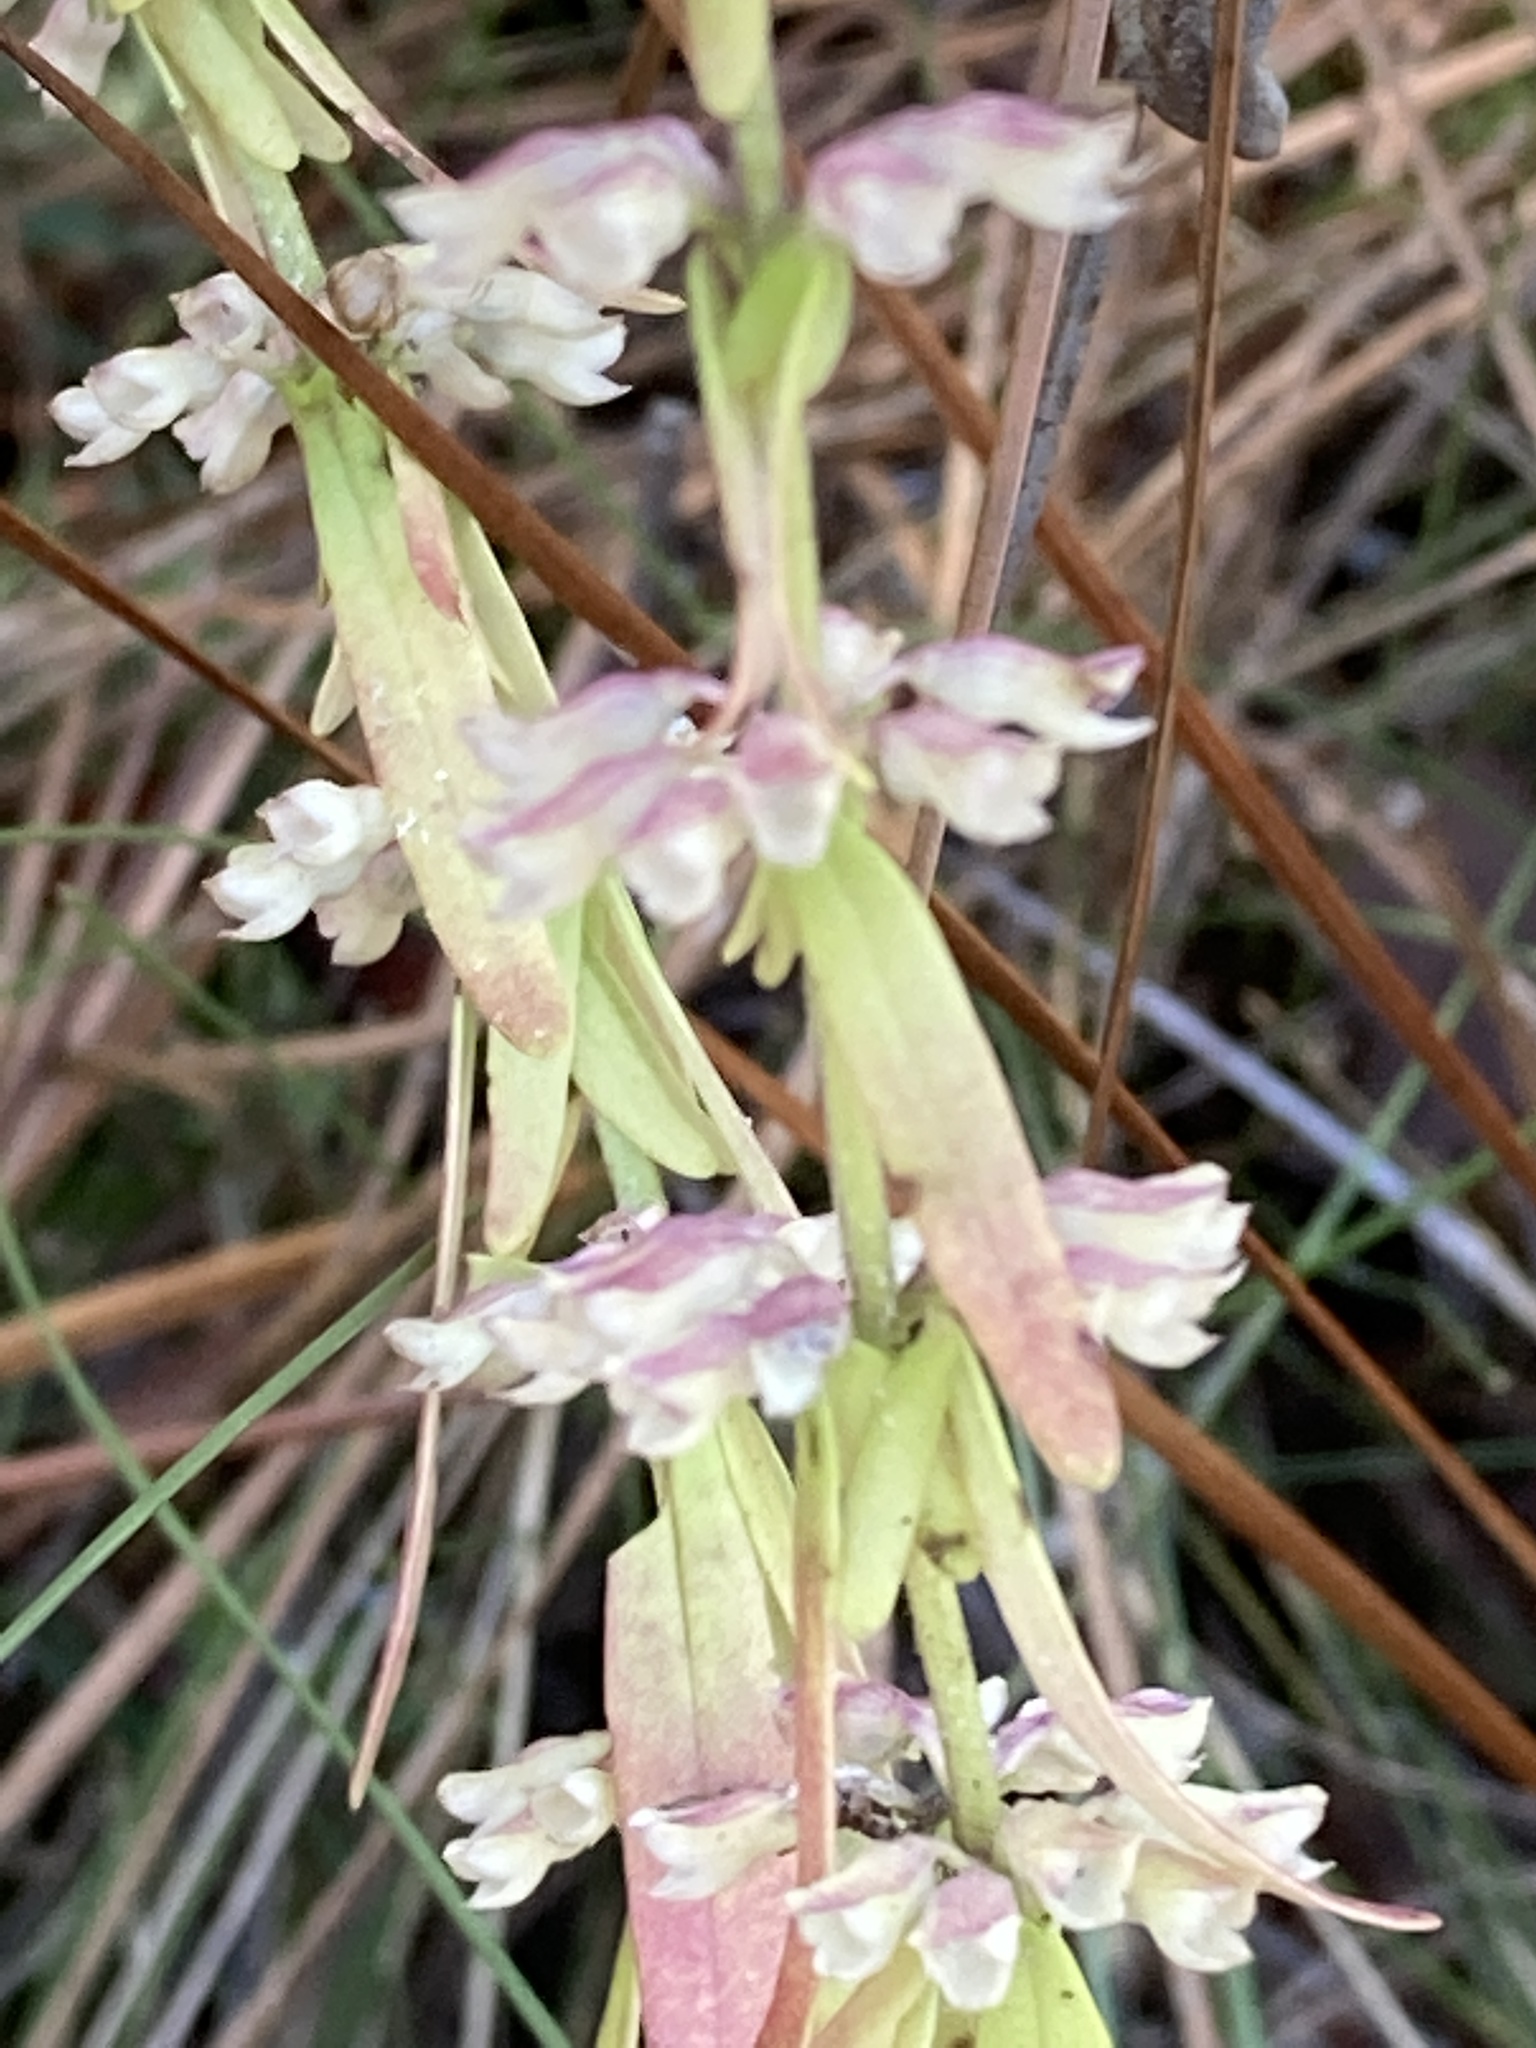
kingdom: Plantae
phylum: Tracheophyta
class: Magnoliopsida
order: Lamiales
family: Lamiaceae
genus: Dicerandra
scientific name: Dicerandra densiflora
